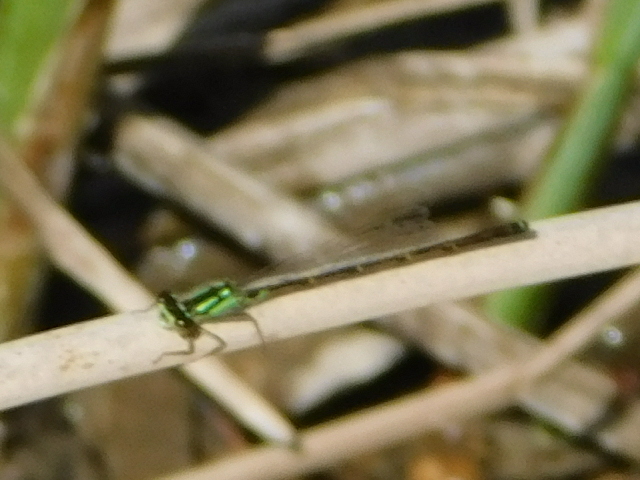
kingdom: Animalia
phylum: Arthropoda
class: Insecta
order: Odonata
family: Coenagrionidae
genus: Ischnura
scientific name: Ischnura posita
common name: Fragile forktail
